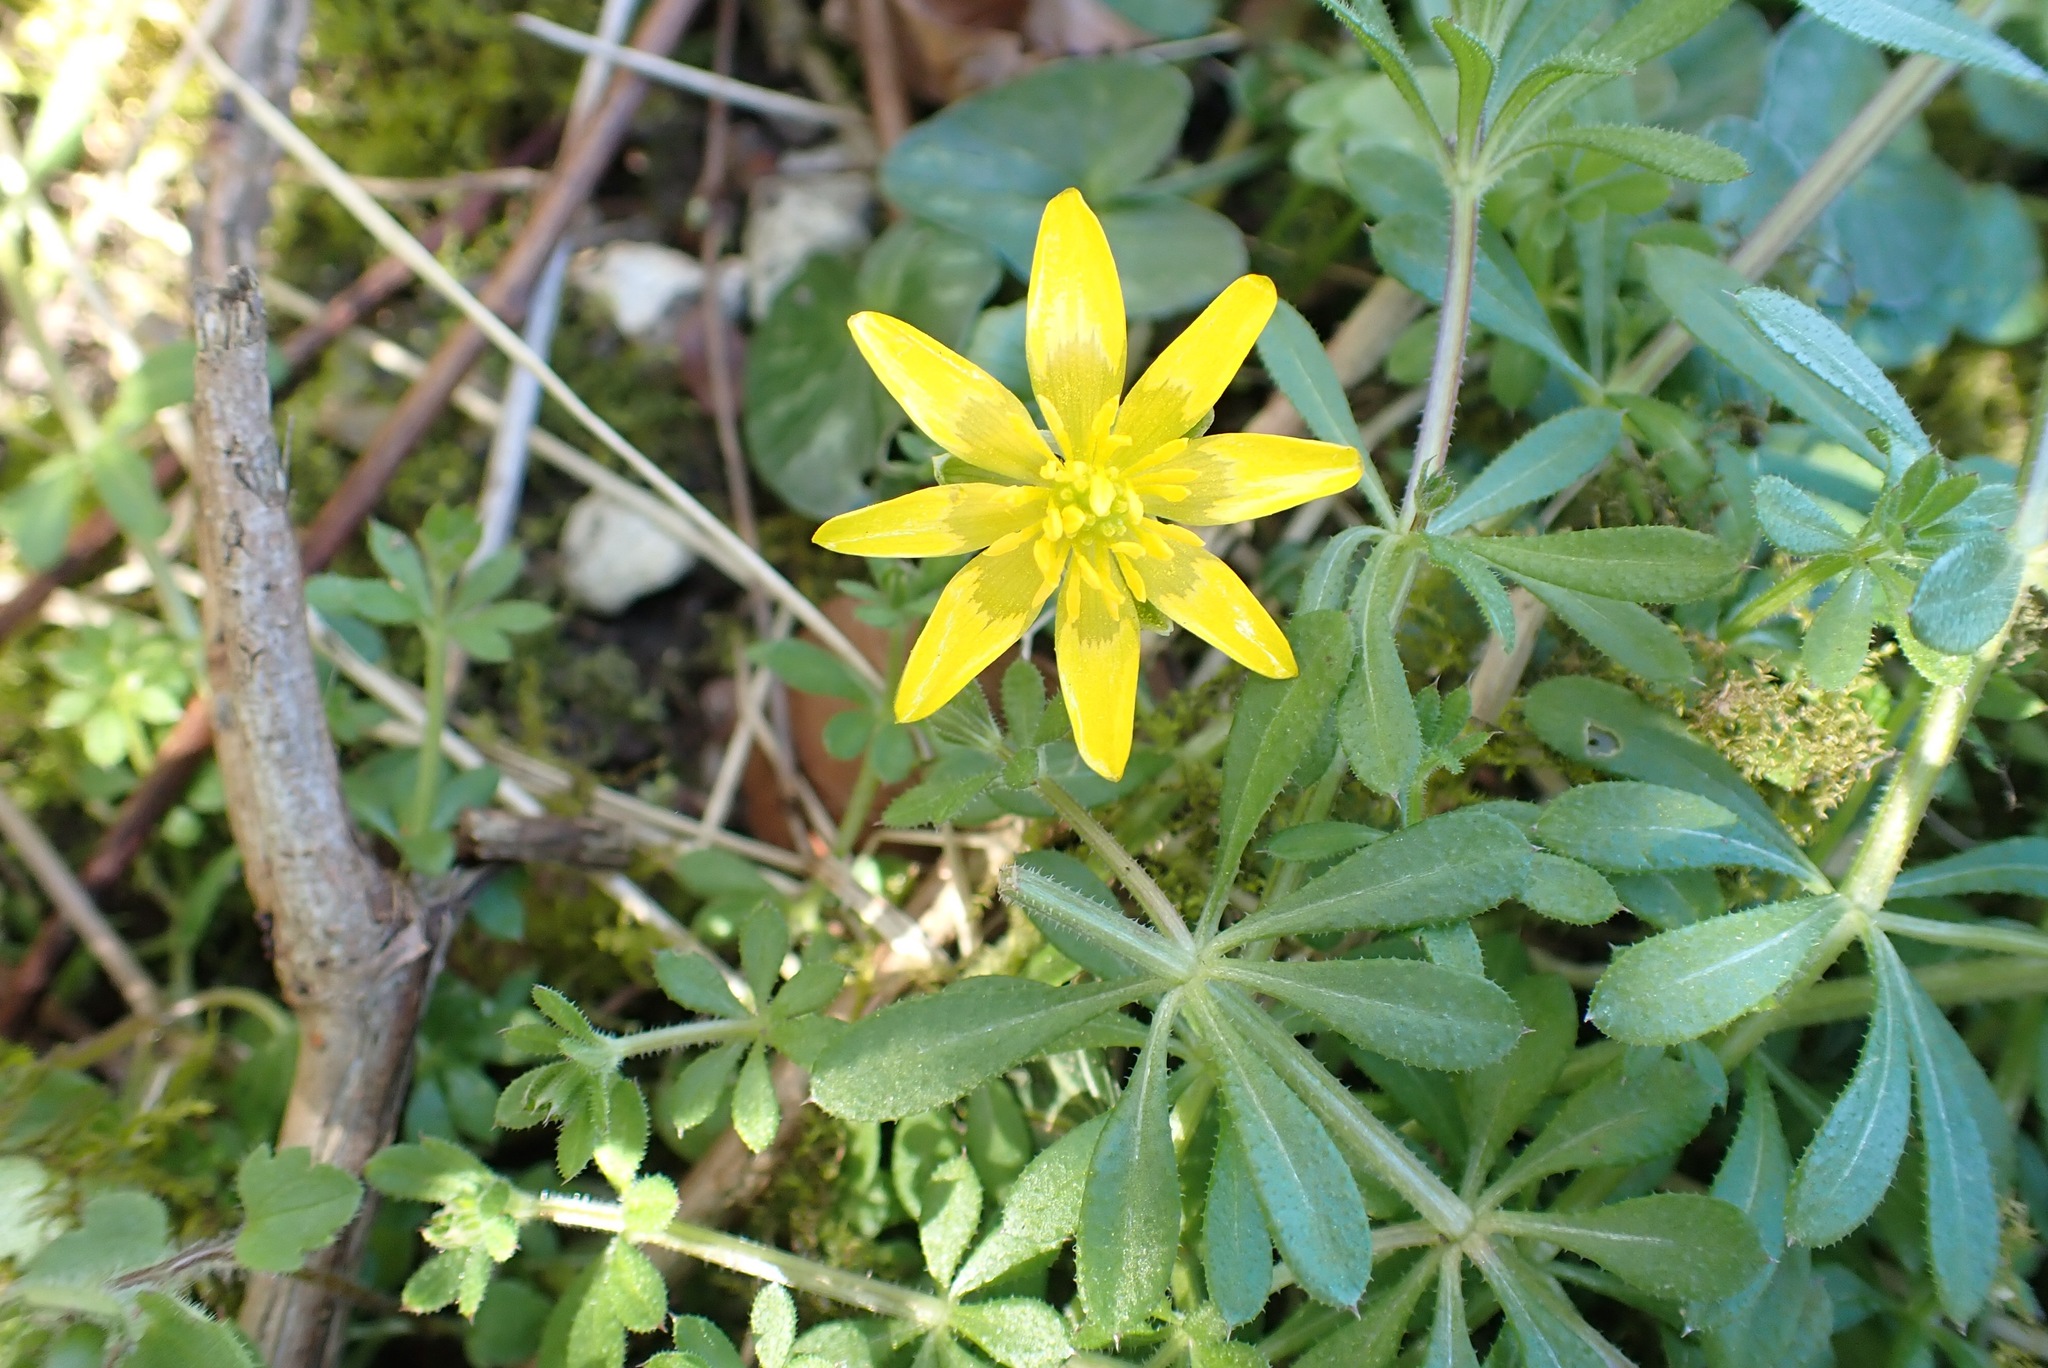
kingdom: Plantae
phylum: Tracheophyta
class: Magnoliopsida
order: Ranunculales
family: Ranunculaceae
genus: Ficaria
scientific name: Ficaria verna
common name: Lesser celandine
